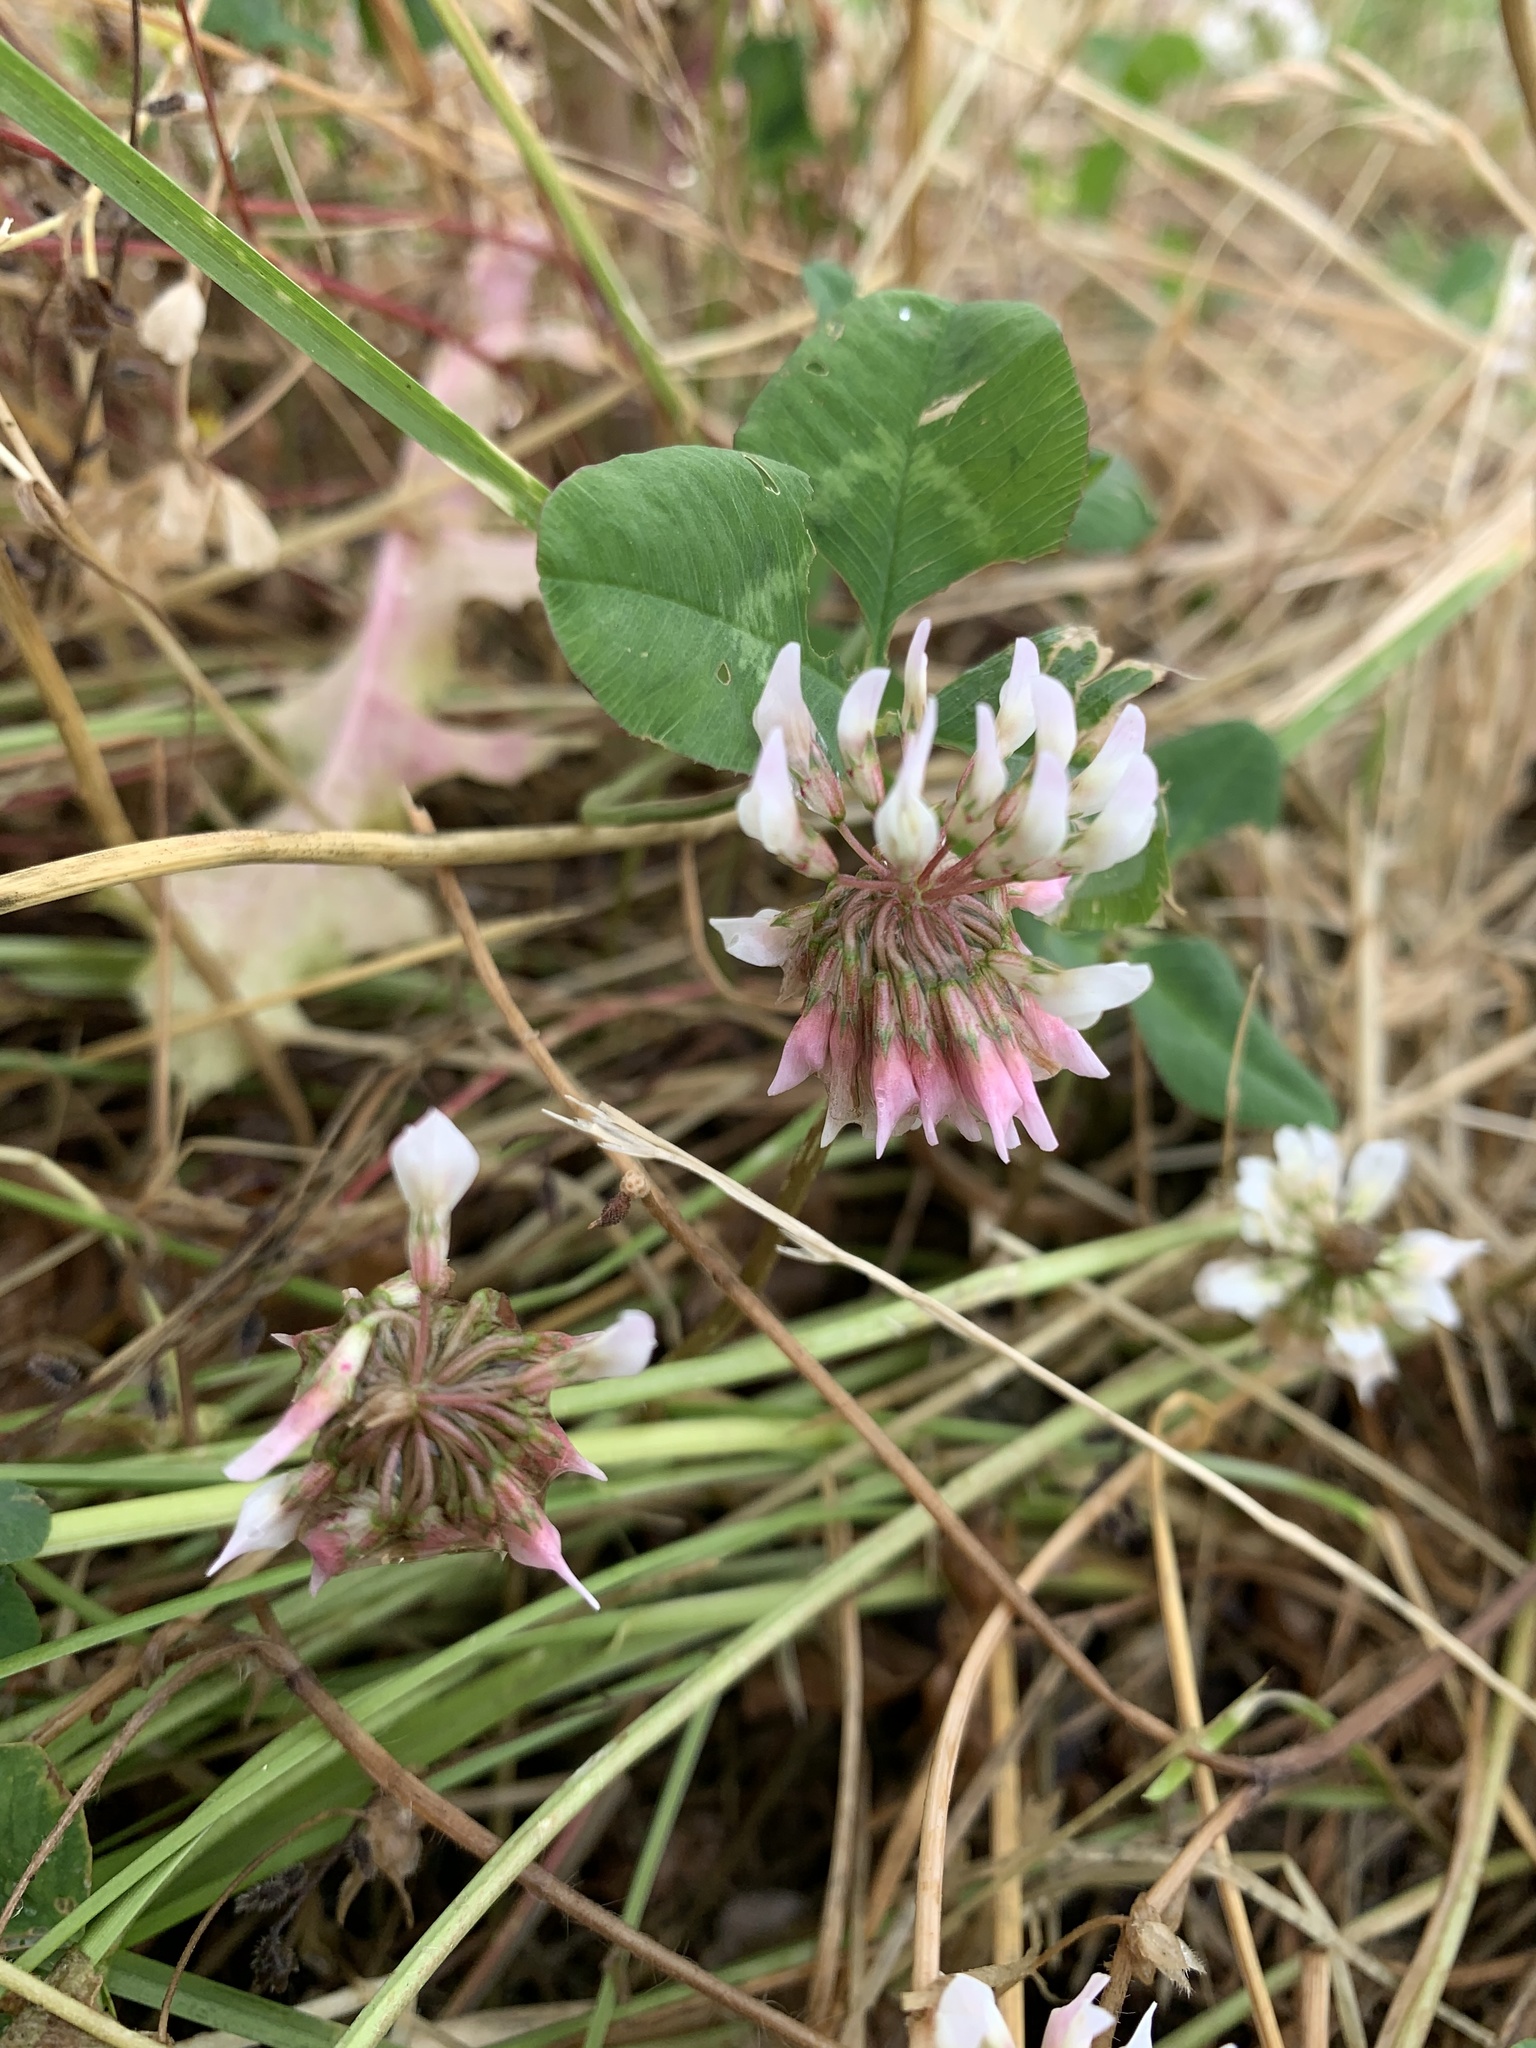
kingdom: Plantae
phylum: Tracheophyta
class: Magnoliopsida
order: Fabales
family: Fabaceae
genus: Trifolium
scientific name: Trifolium repens
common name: White clover
